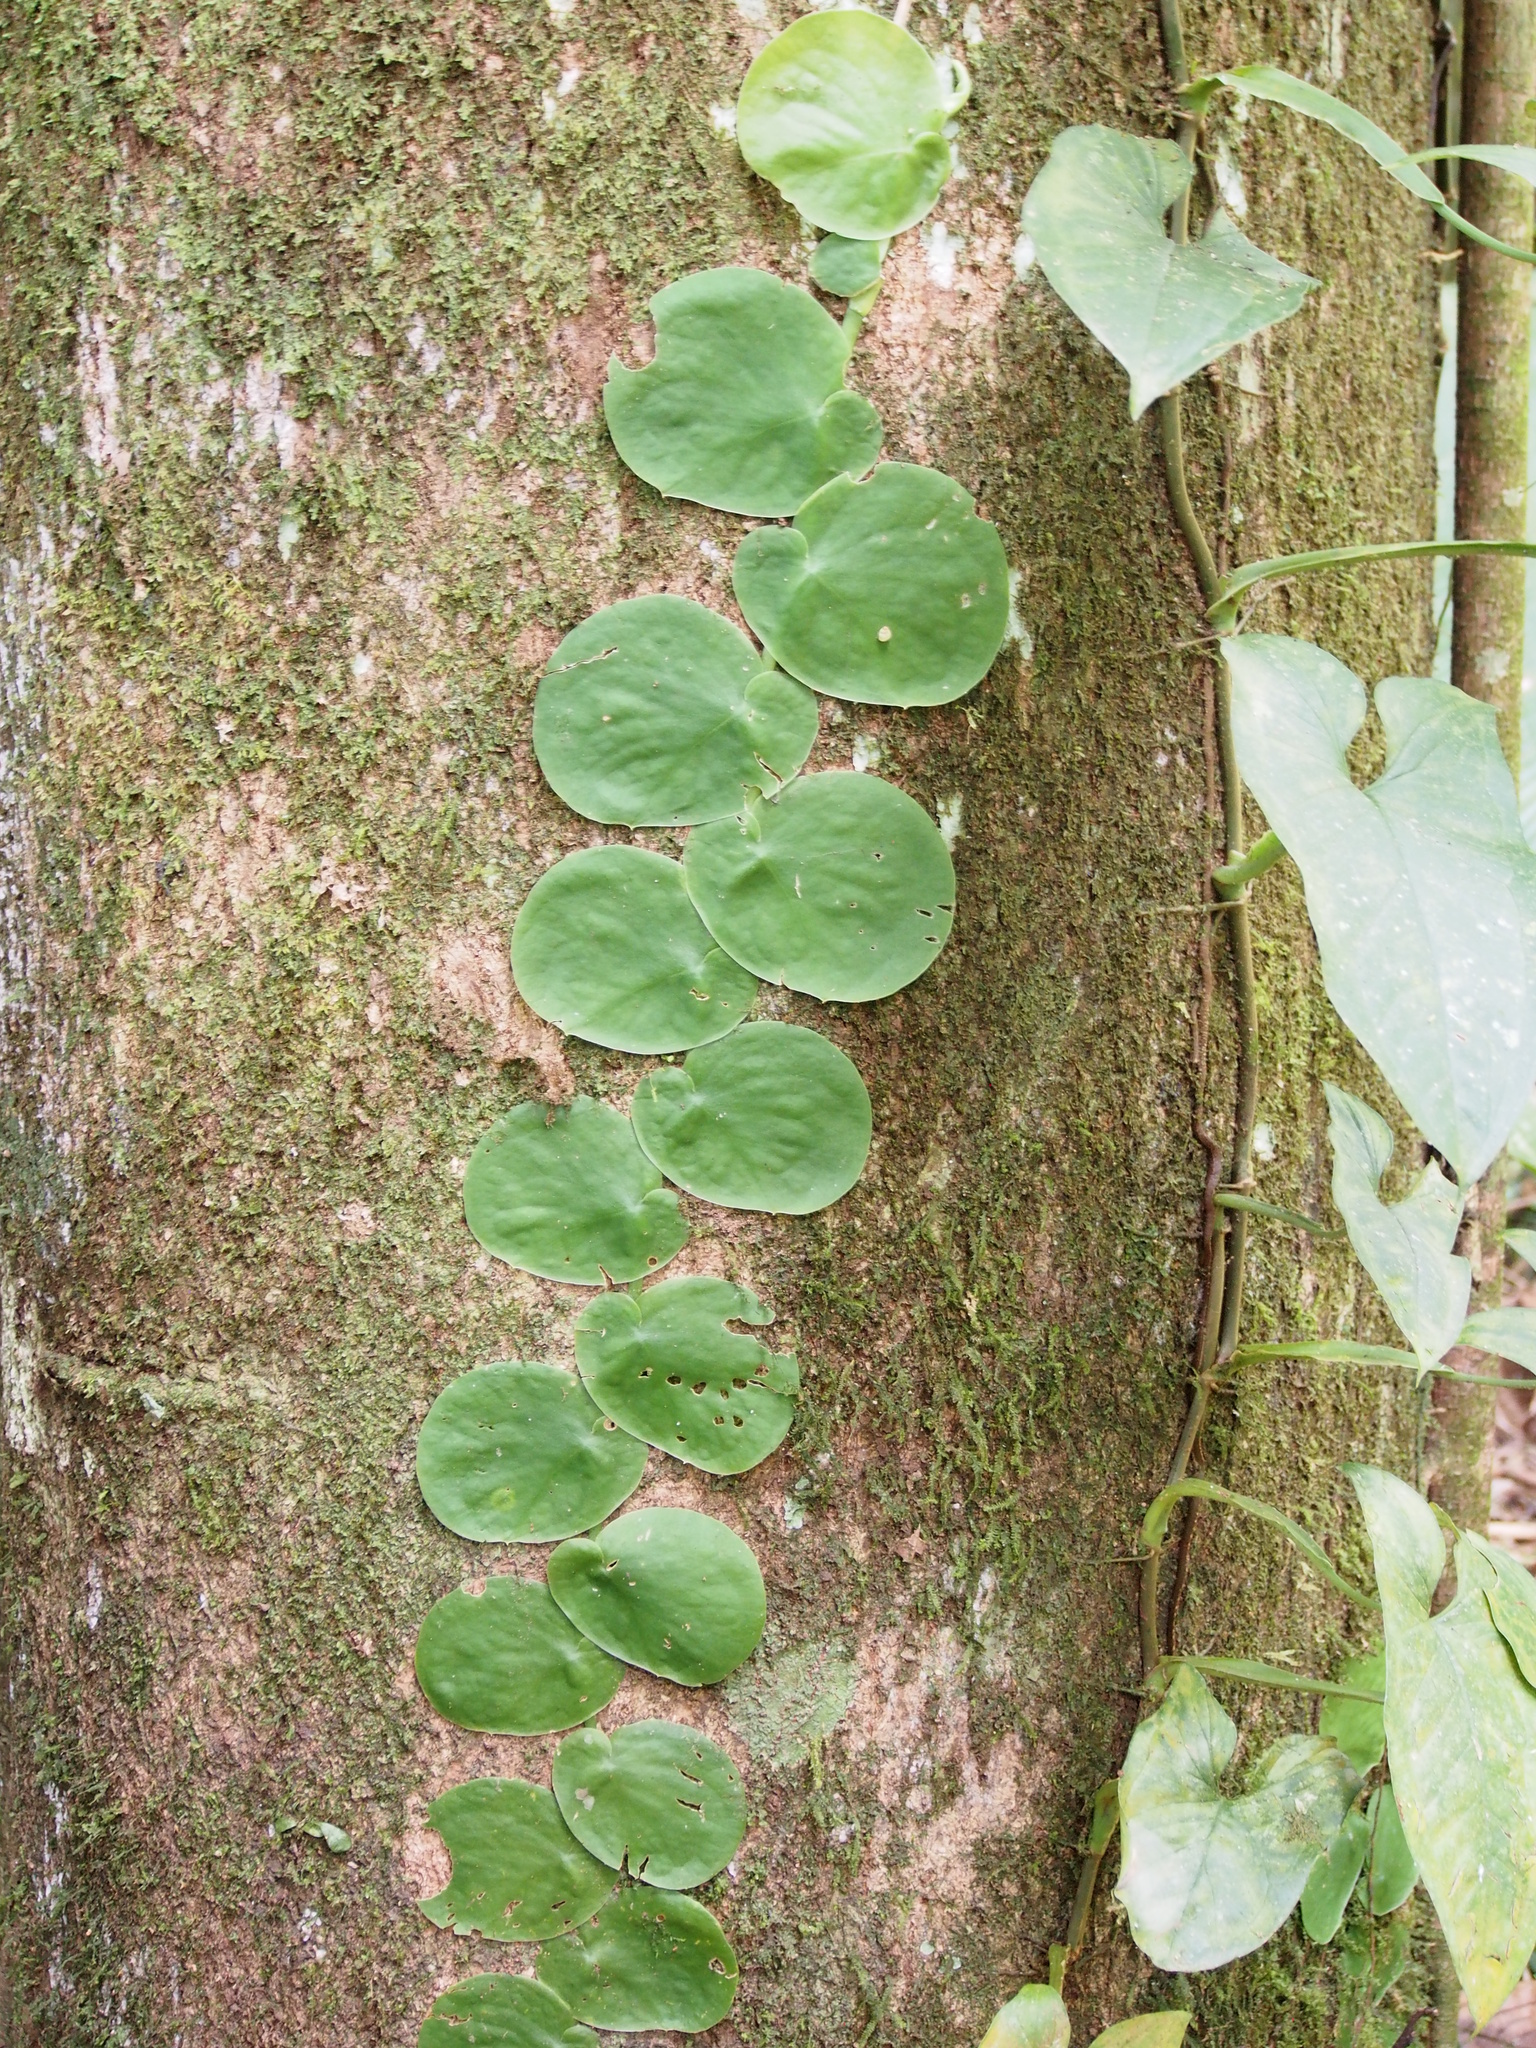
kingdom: Plantae
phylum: Tracheophyta
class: Liliopsida
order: Alismatales
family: Araceae
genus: Monstera
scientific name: Monstera tenuis
